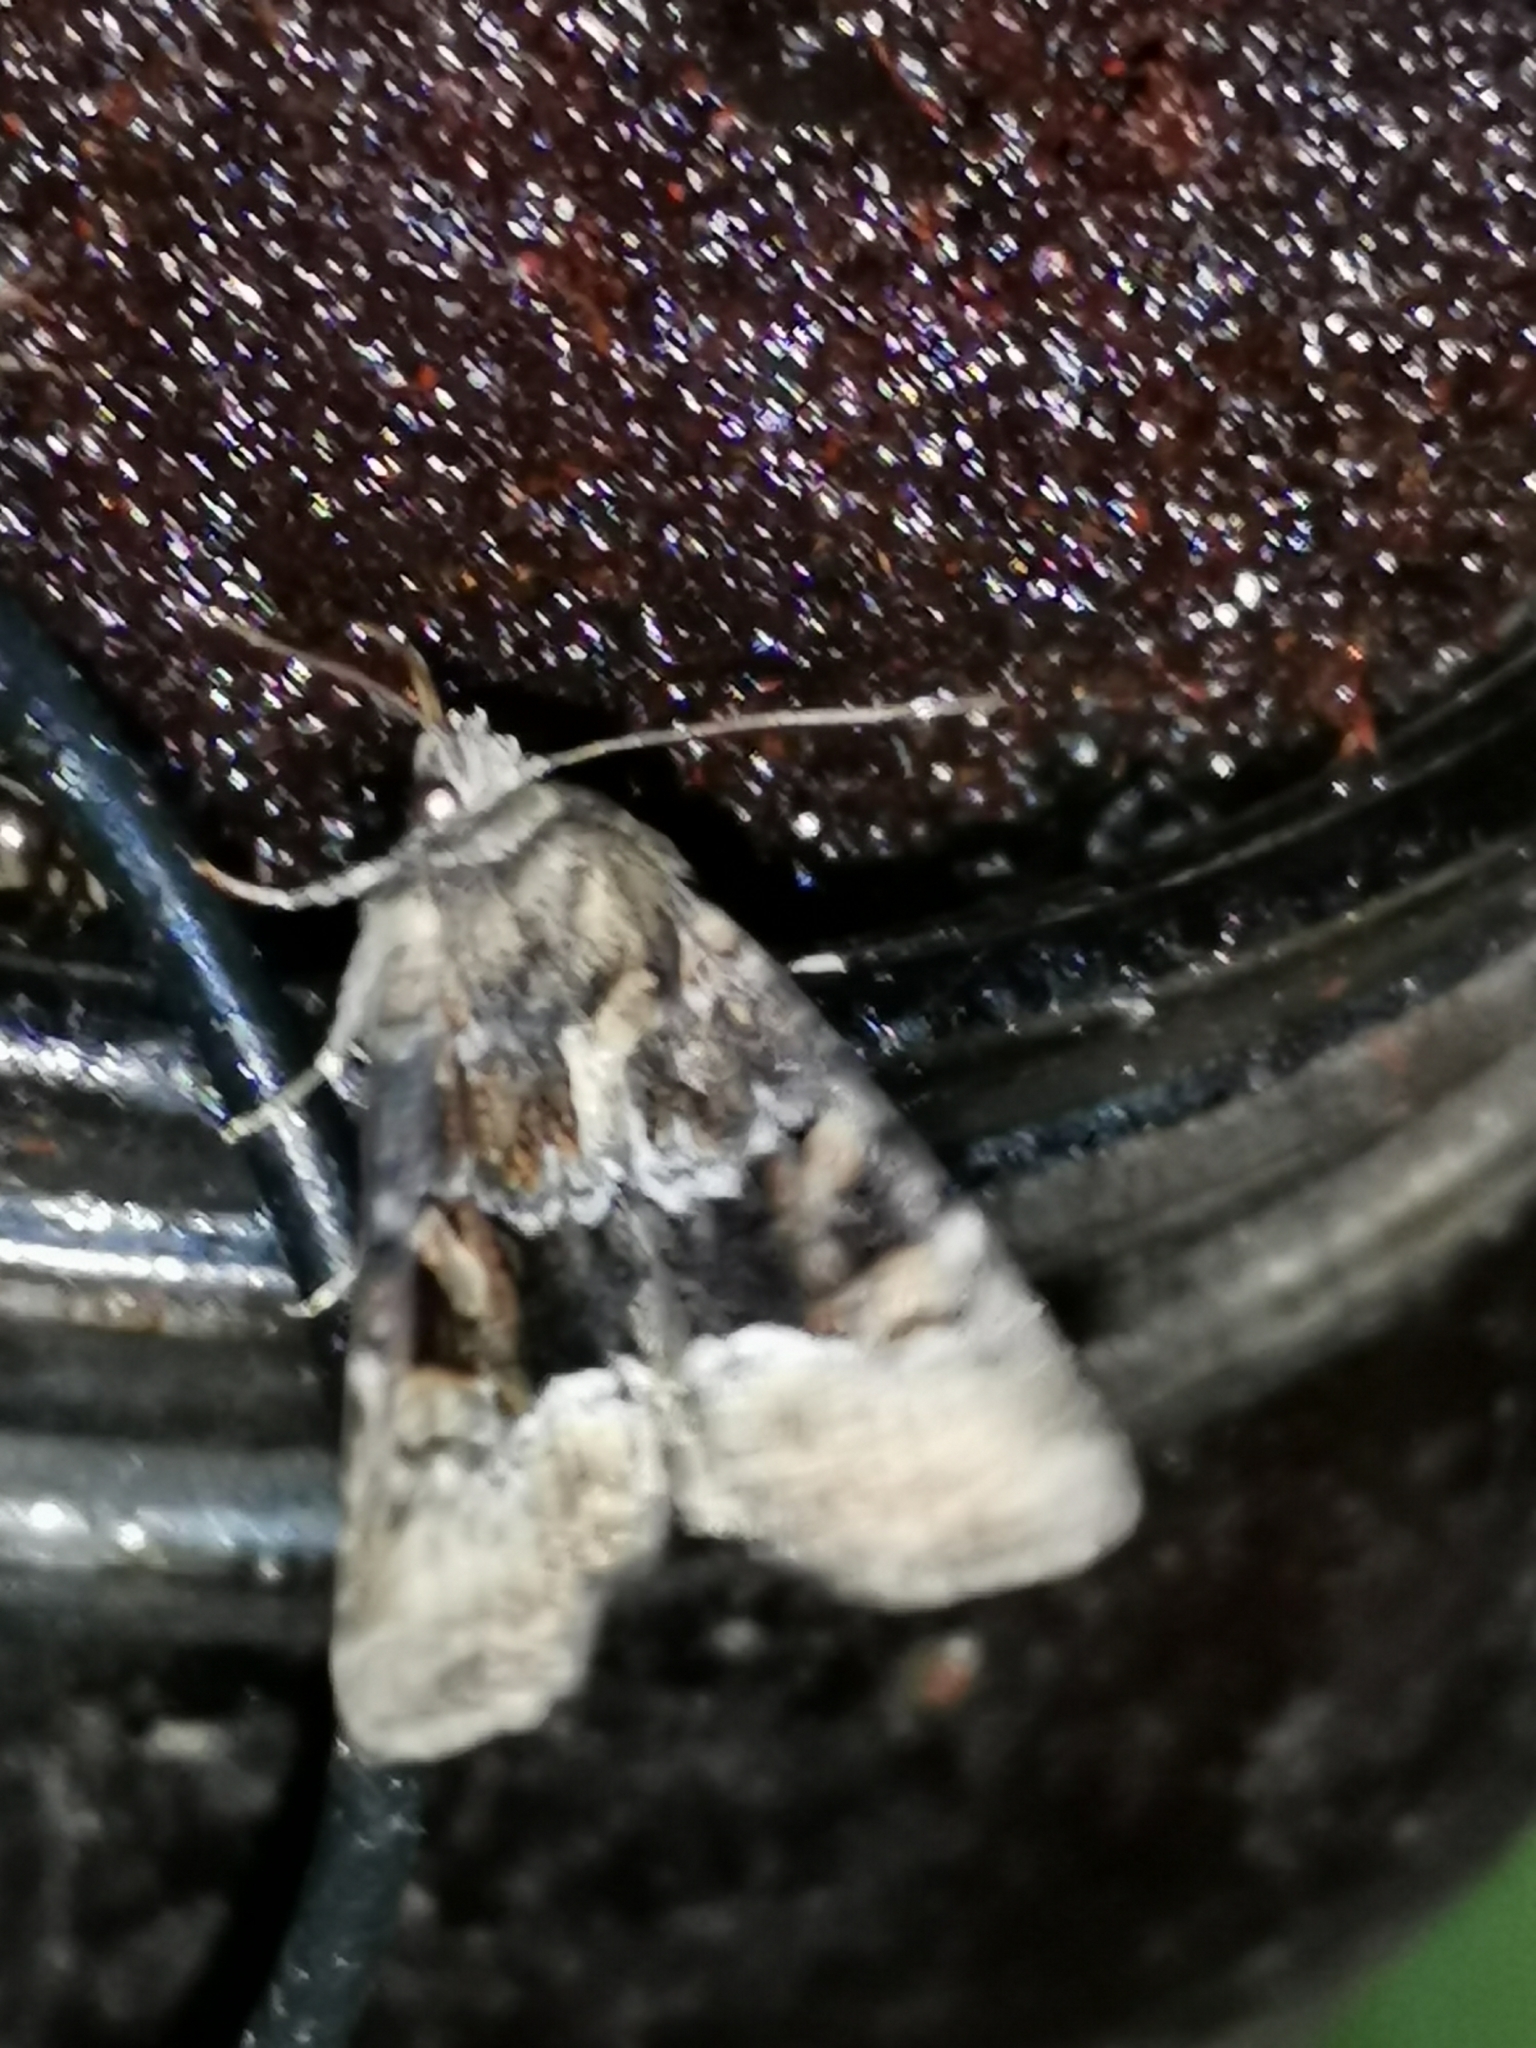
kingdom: Animalia
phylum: Arthropoda
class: Insecta
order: Lepidoptera
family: Noctuidae
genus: Oligia
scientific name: Oligia latruncula
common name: Tawny marbled minor
